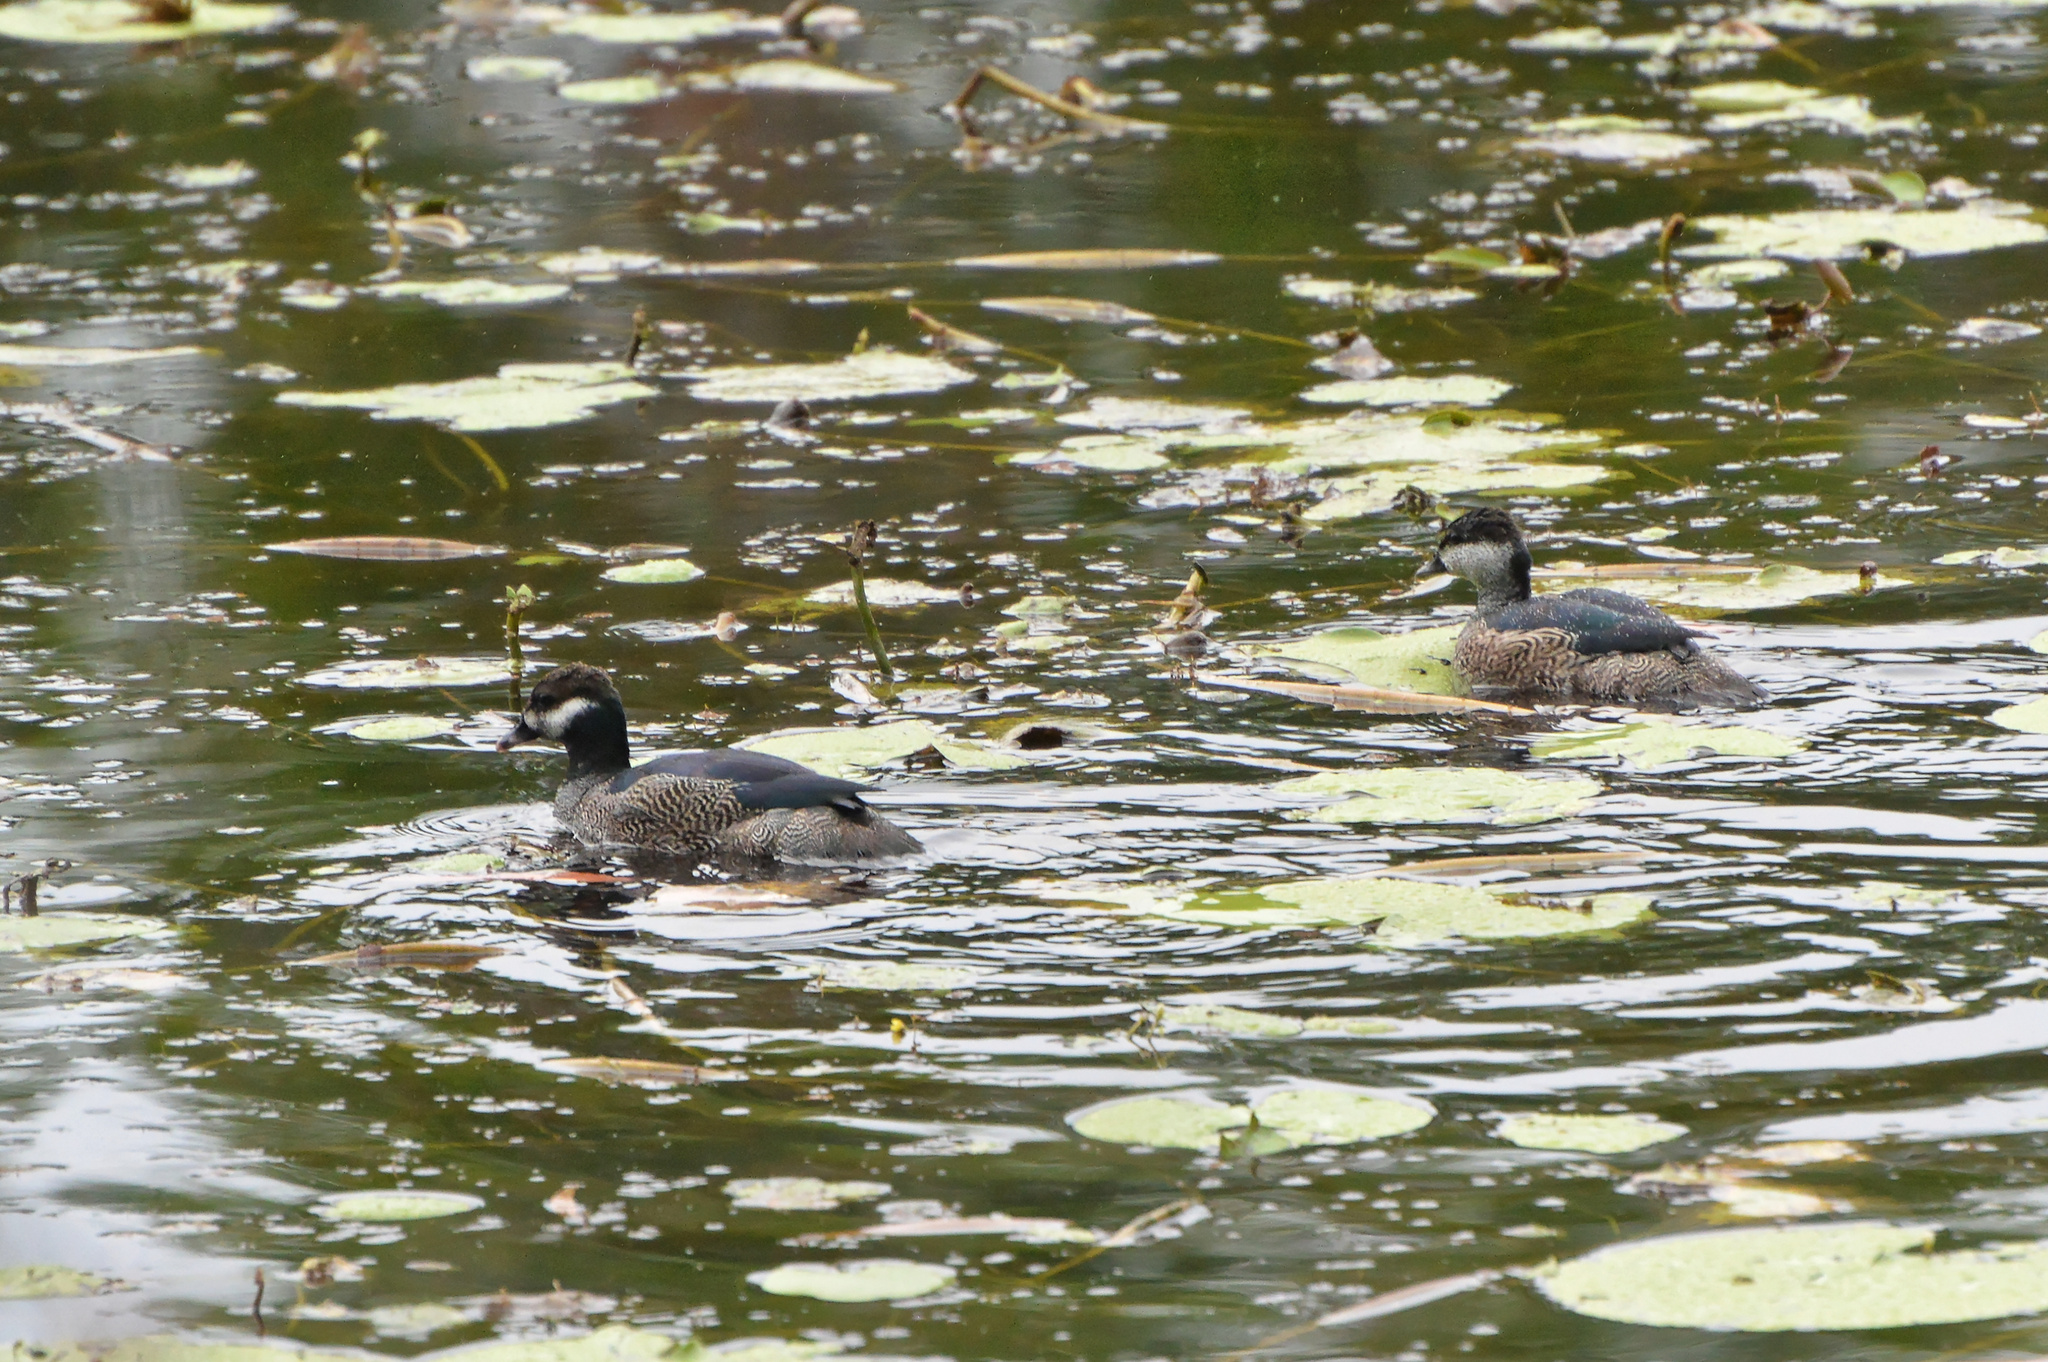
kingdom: Animalia
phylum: Chordata
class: Aves
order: Anseriformes
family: Anatidae
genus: Nettapus
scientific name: Nettapus pulchellus
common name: Green pygmy-goose
